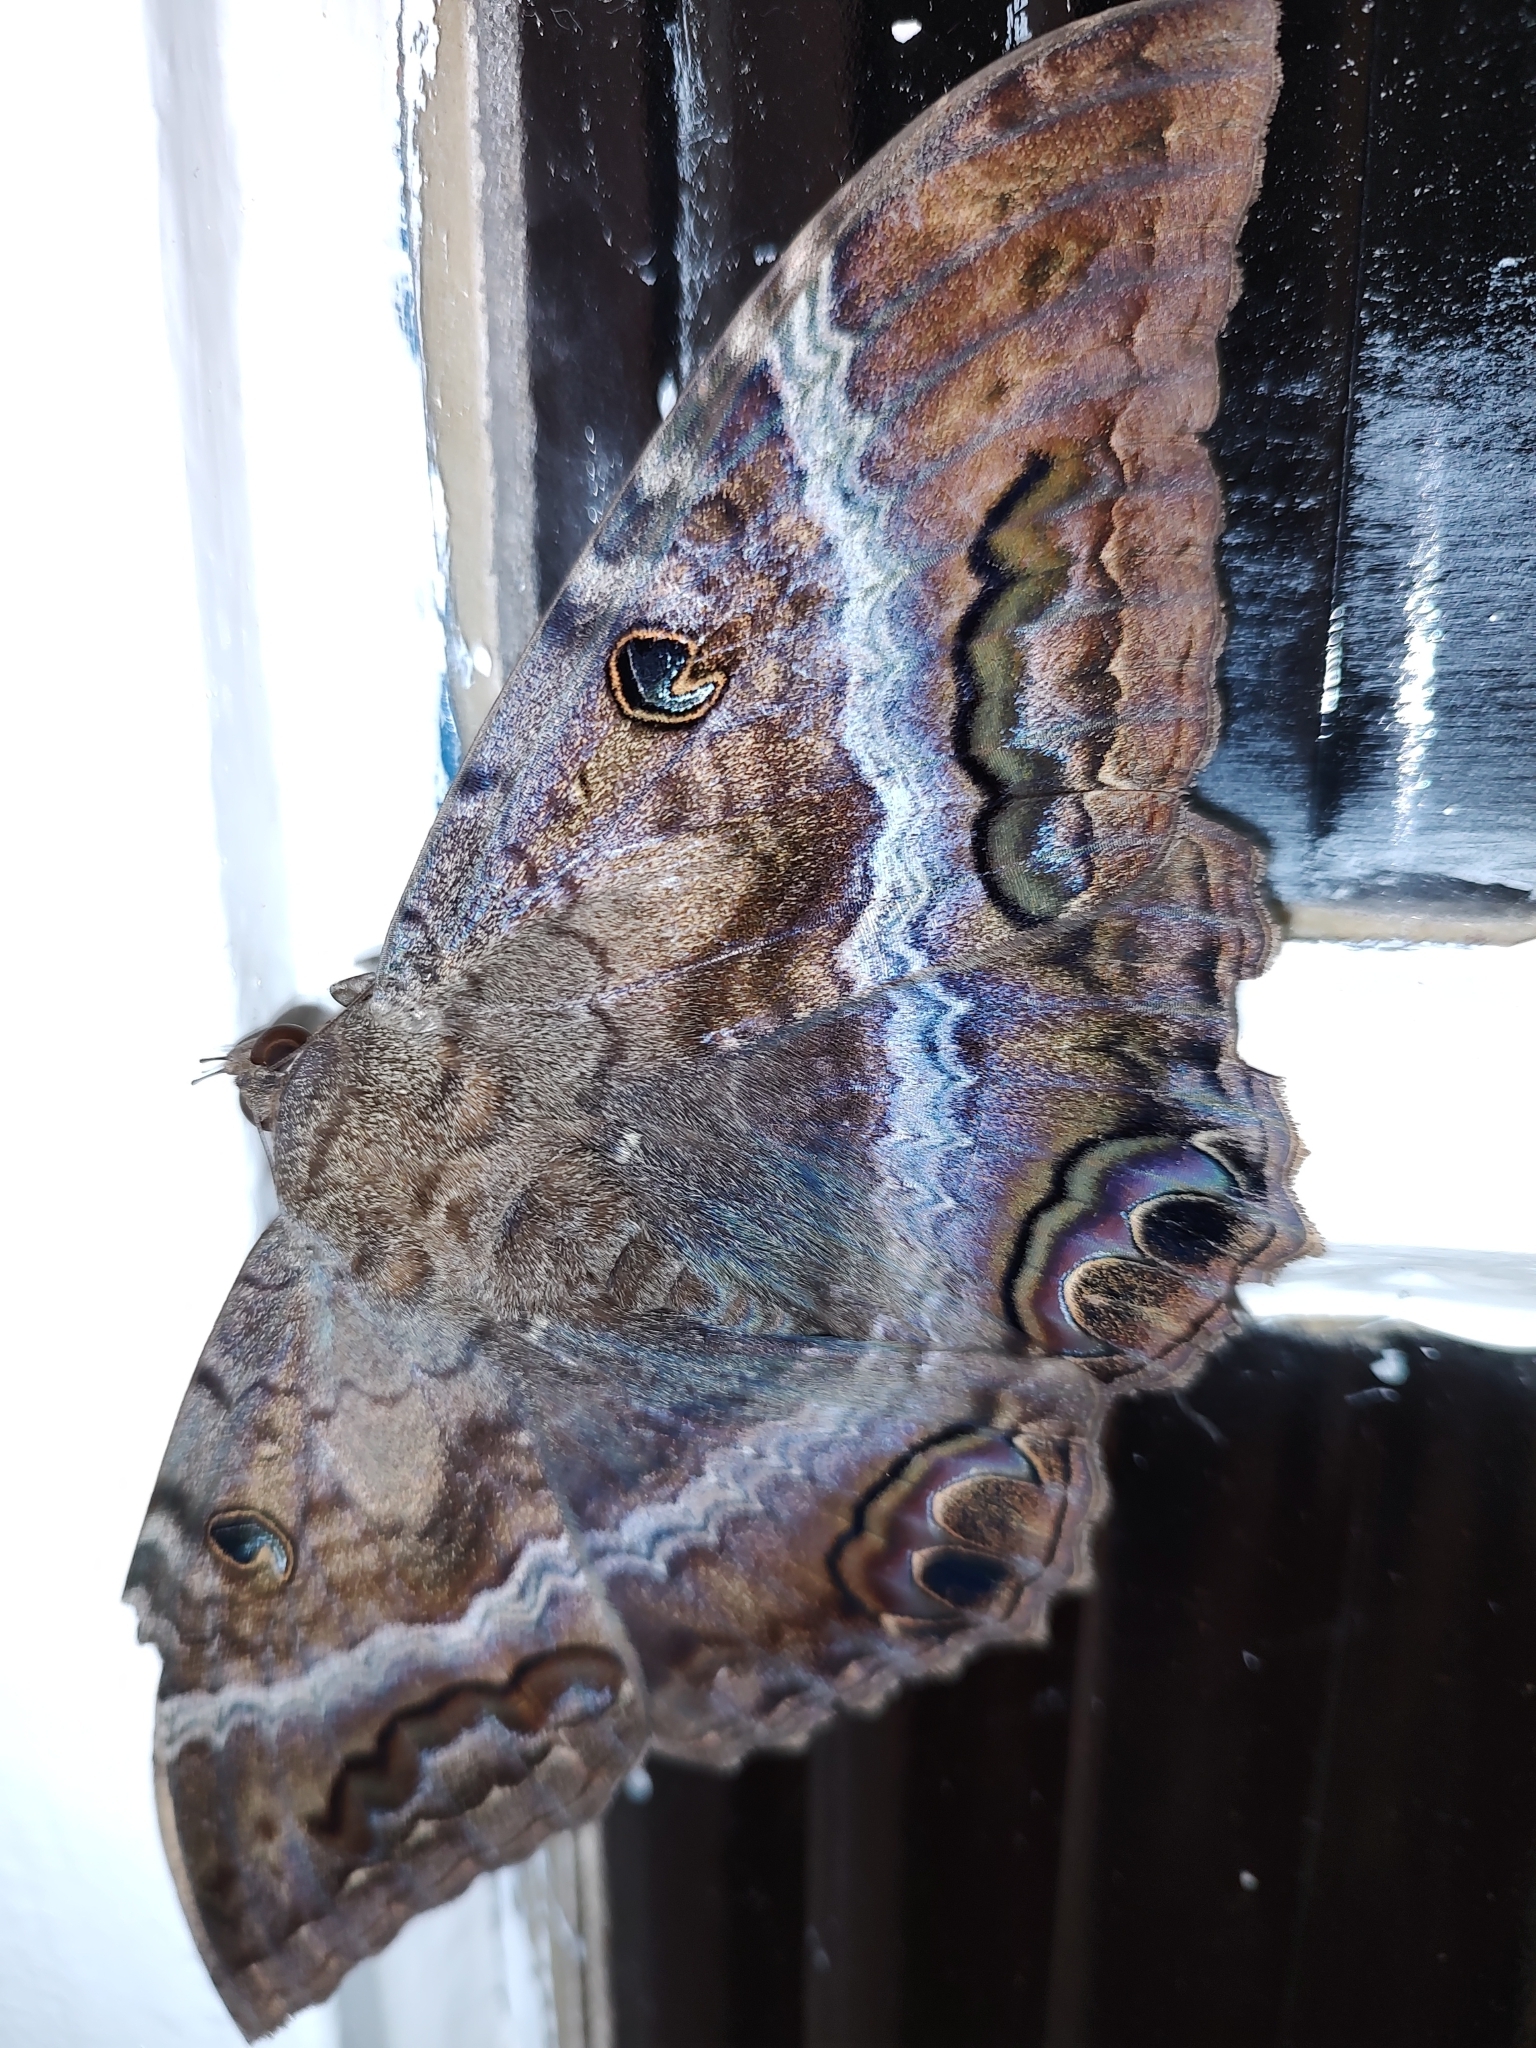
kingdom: Animalia
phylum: Arthropoda
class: Insecta
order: Lepidoptera
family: Erebidae
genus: Ascalapha
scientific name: Ascalapha odorata
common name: Black witch
